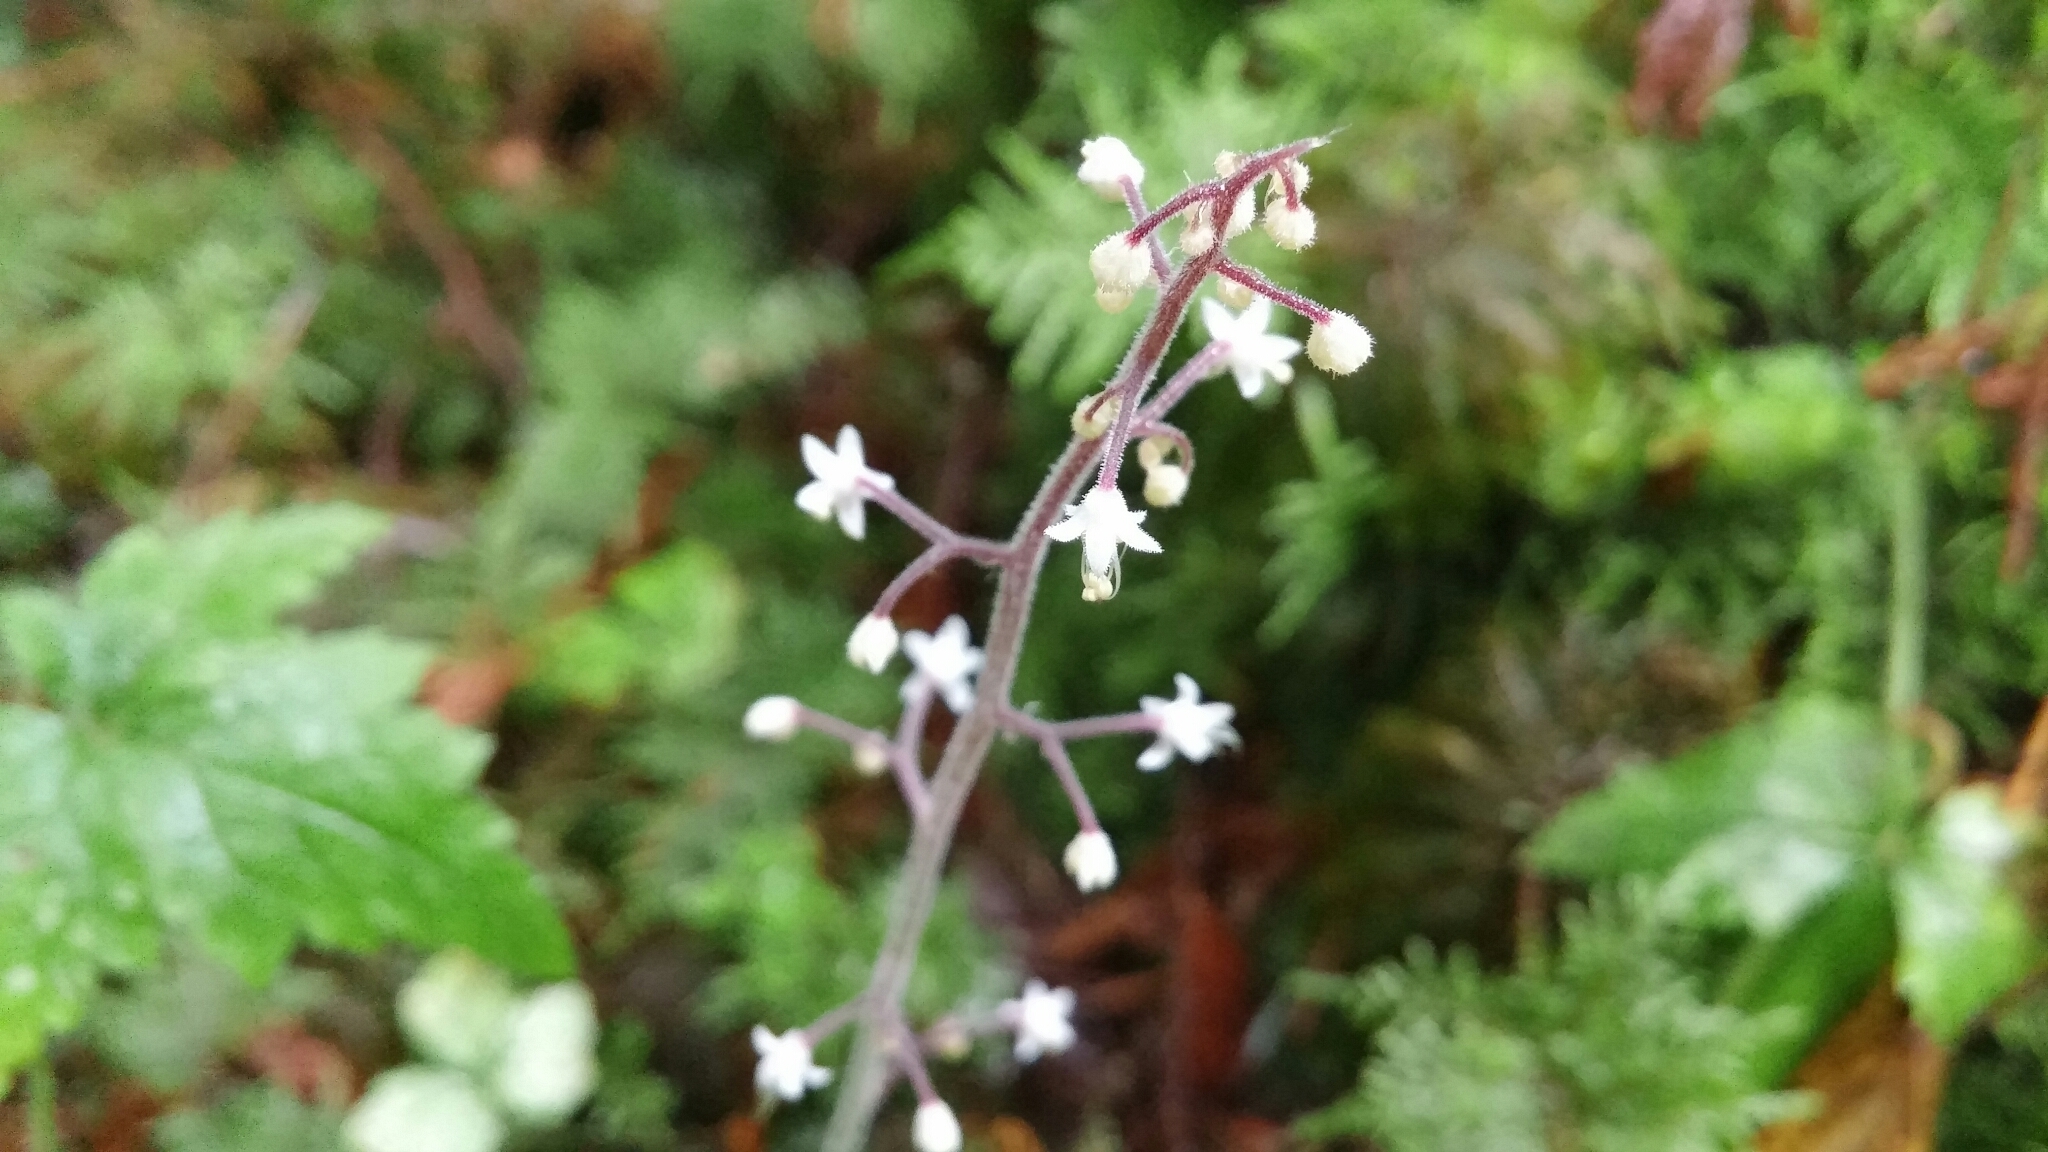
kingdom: Plantae
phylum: Tracheophyta
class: Magnoliopsida
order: Saxifragales
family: Saxifragaceae
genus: Tiarella
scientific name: Tiarella trifoliata
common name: Sugar-scoop
